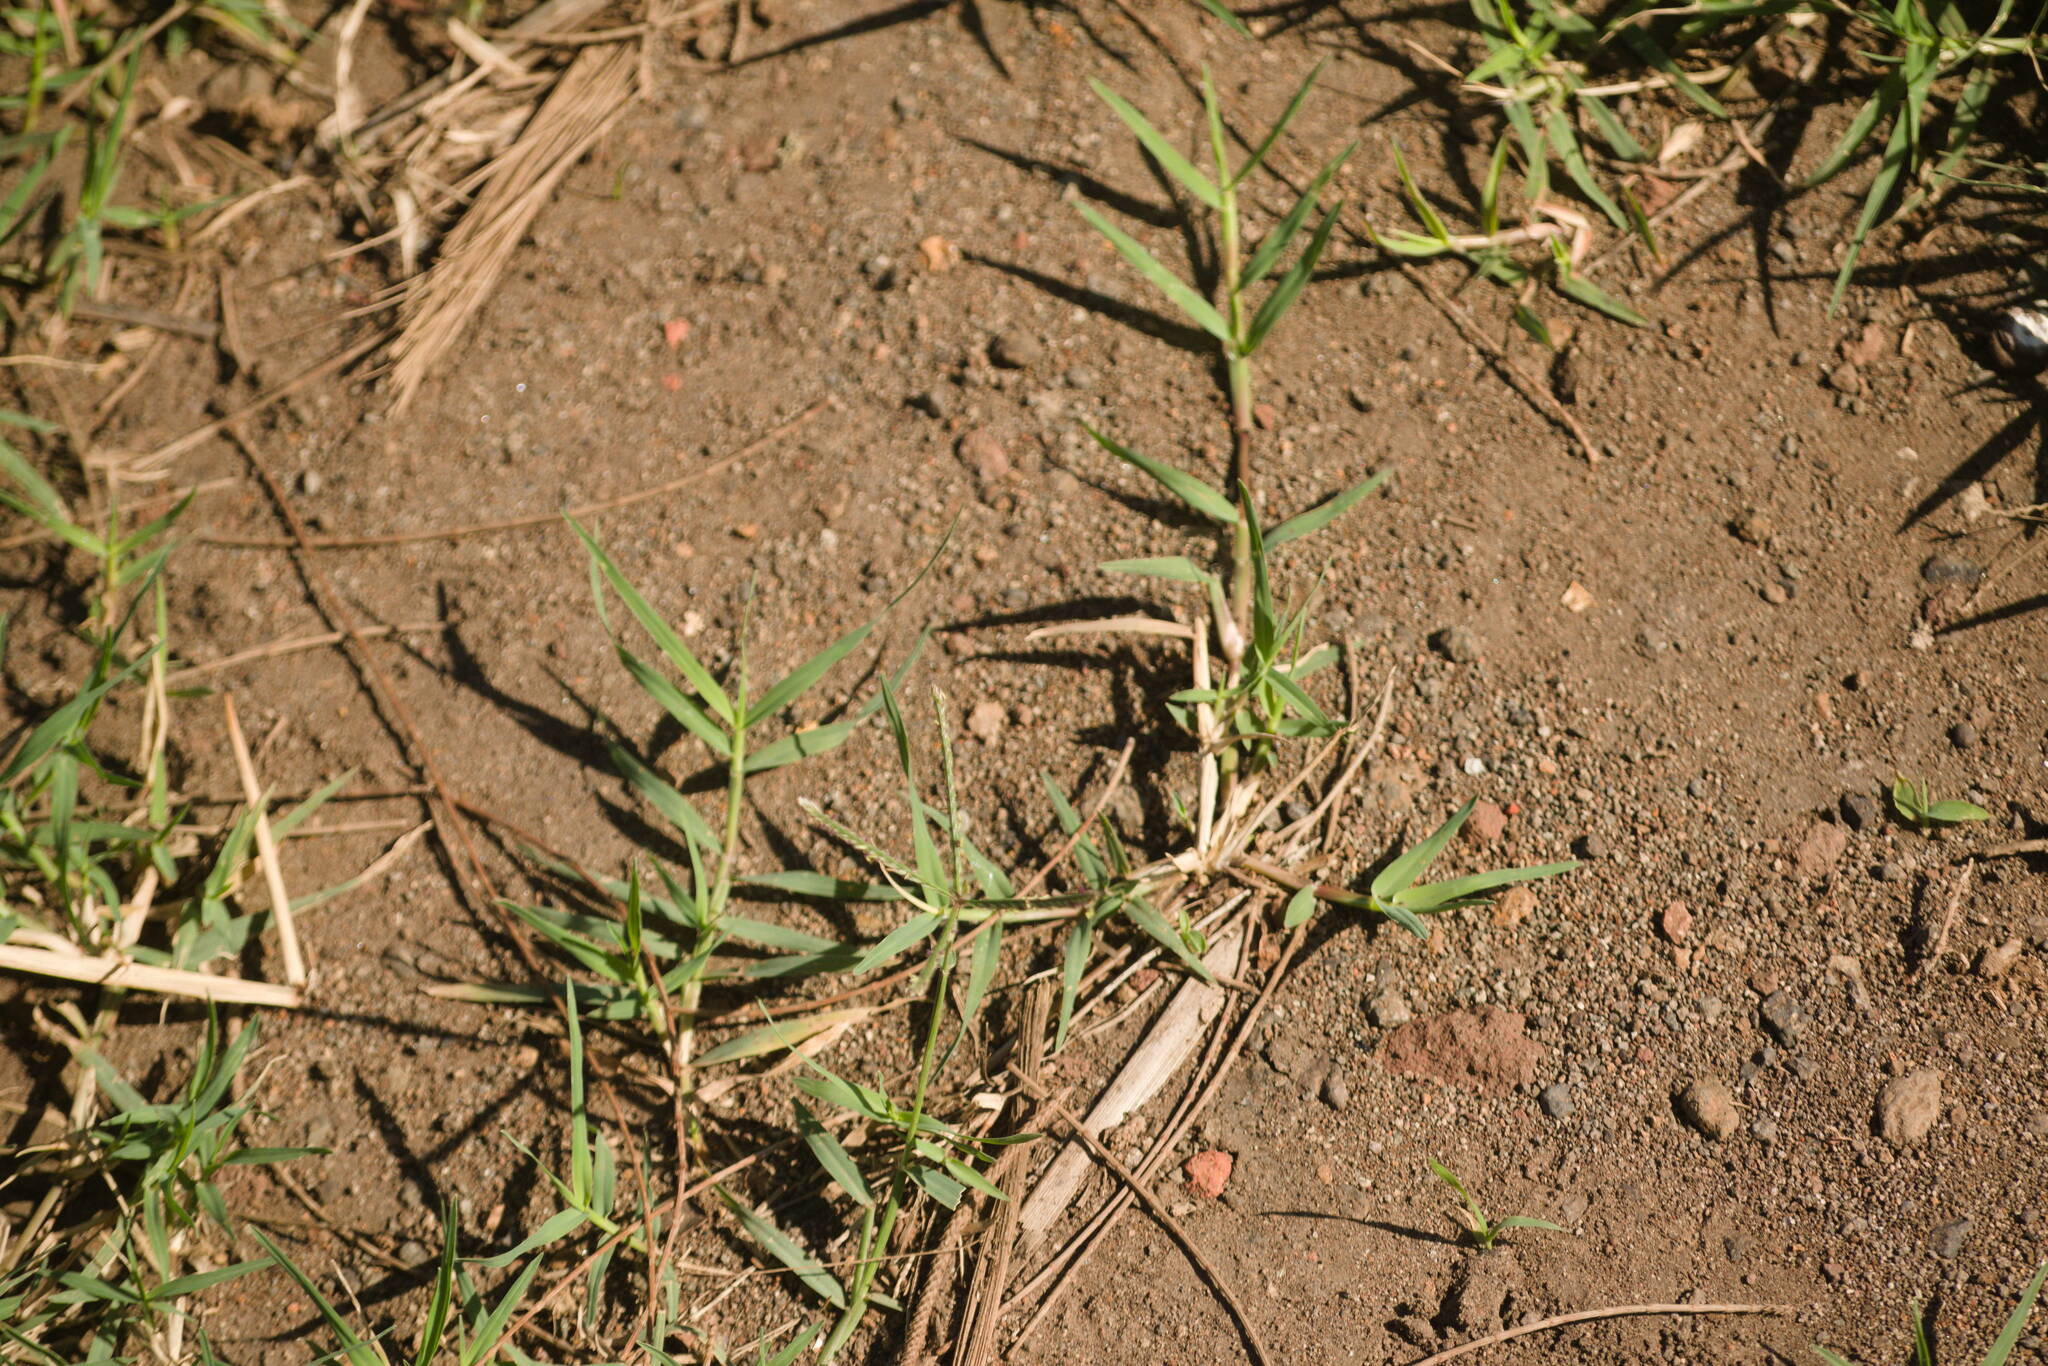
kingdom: Plantae
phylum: Tracheophyta
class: Liliopsida
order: Poales
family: Poaceae
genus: Cynodon
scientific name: Cynodon dactylon
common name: Bermuda grass
